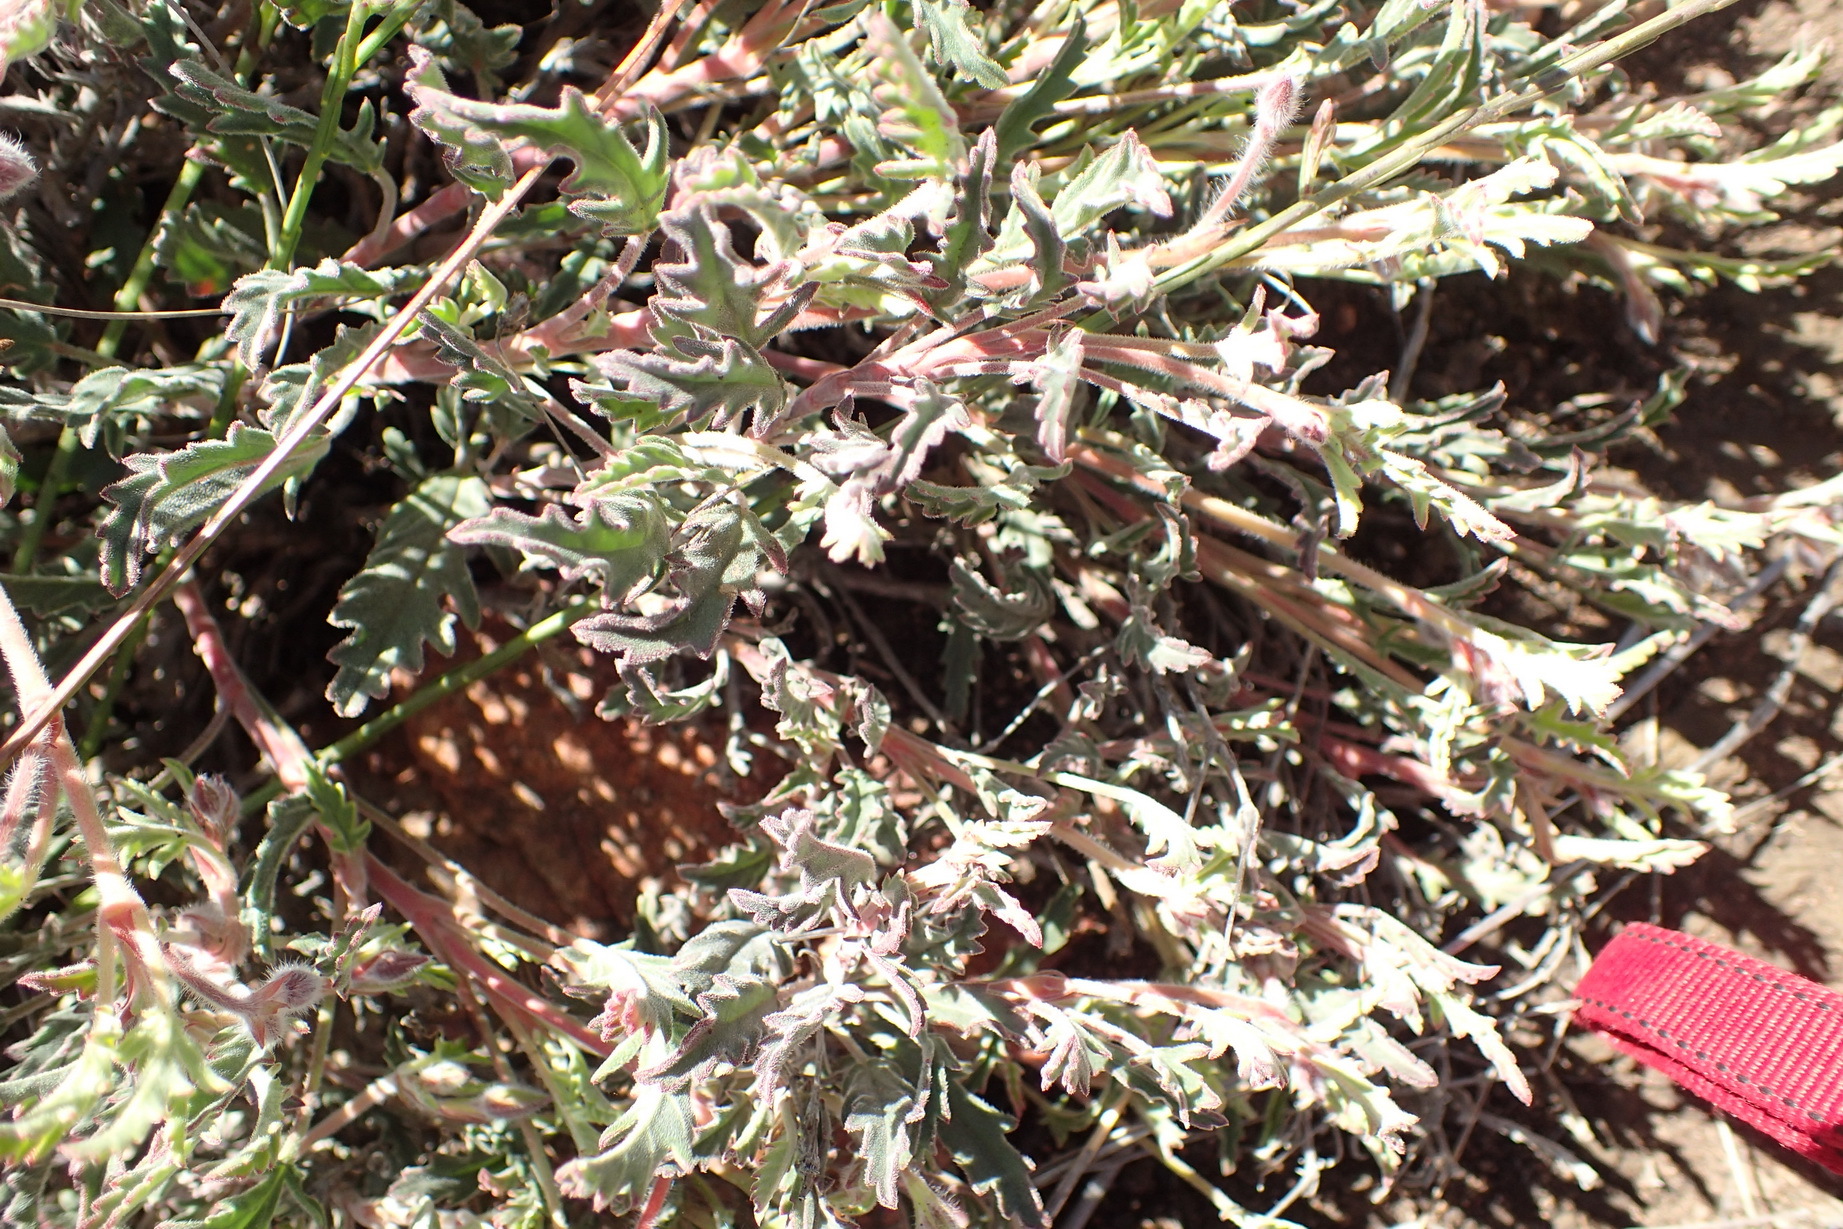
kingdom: Plantae
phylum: Tracheophyta
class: Magnoliopsida
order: Geraniales
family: Geraniaceae
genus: Pelargonium
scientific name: Pelargonium tricolor
